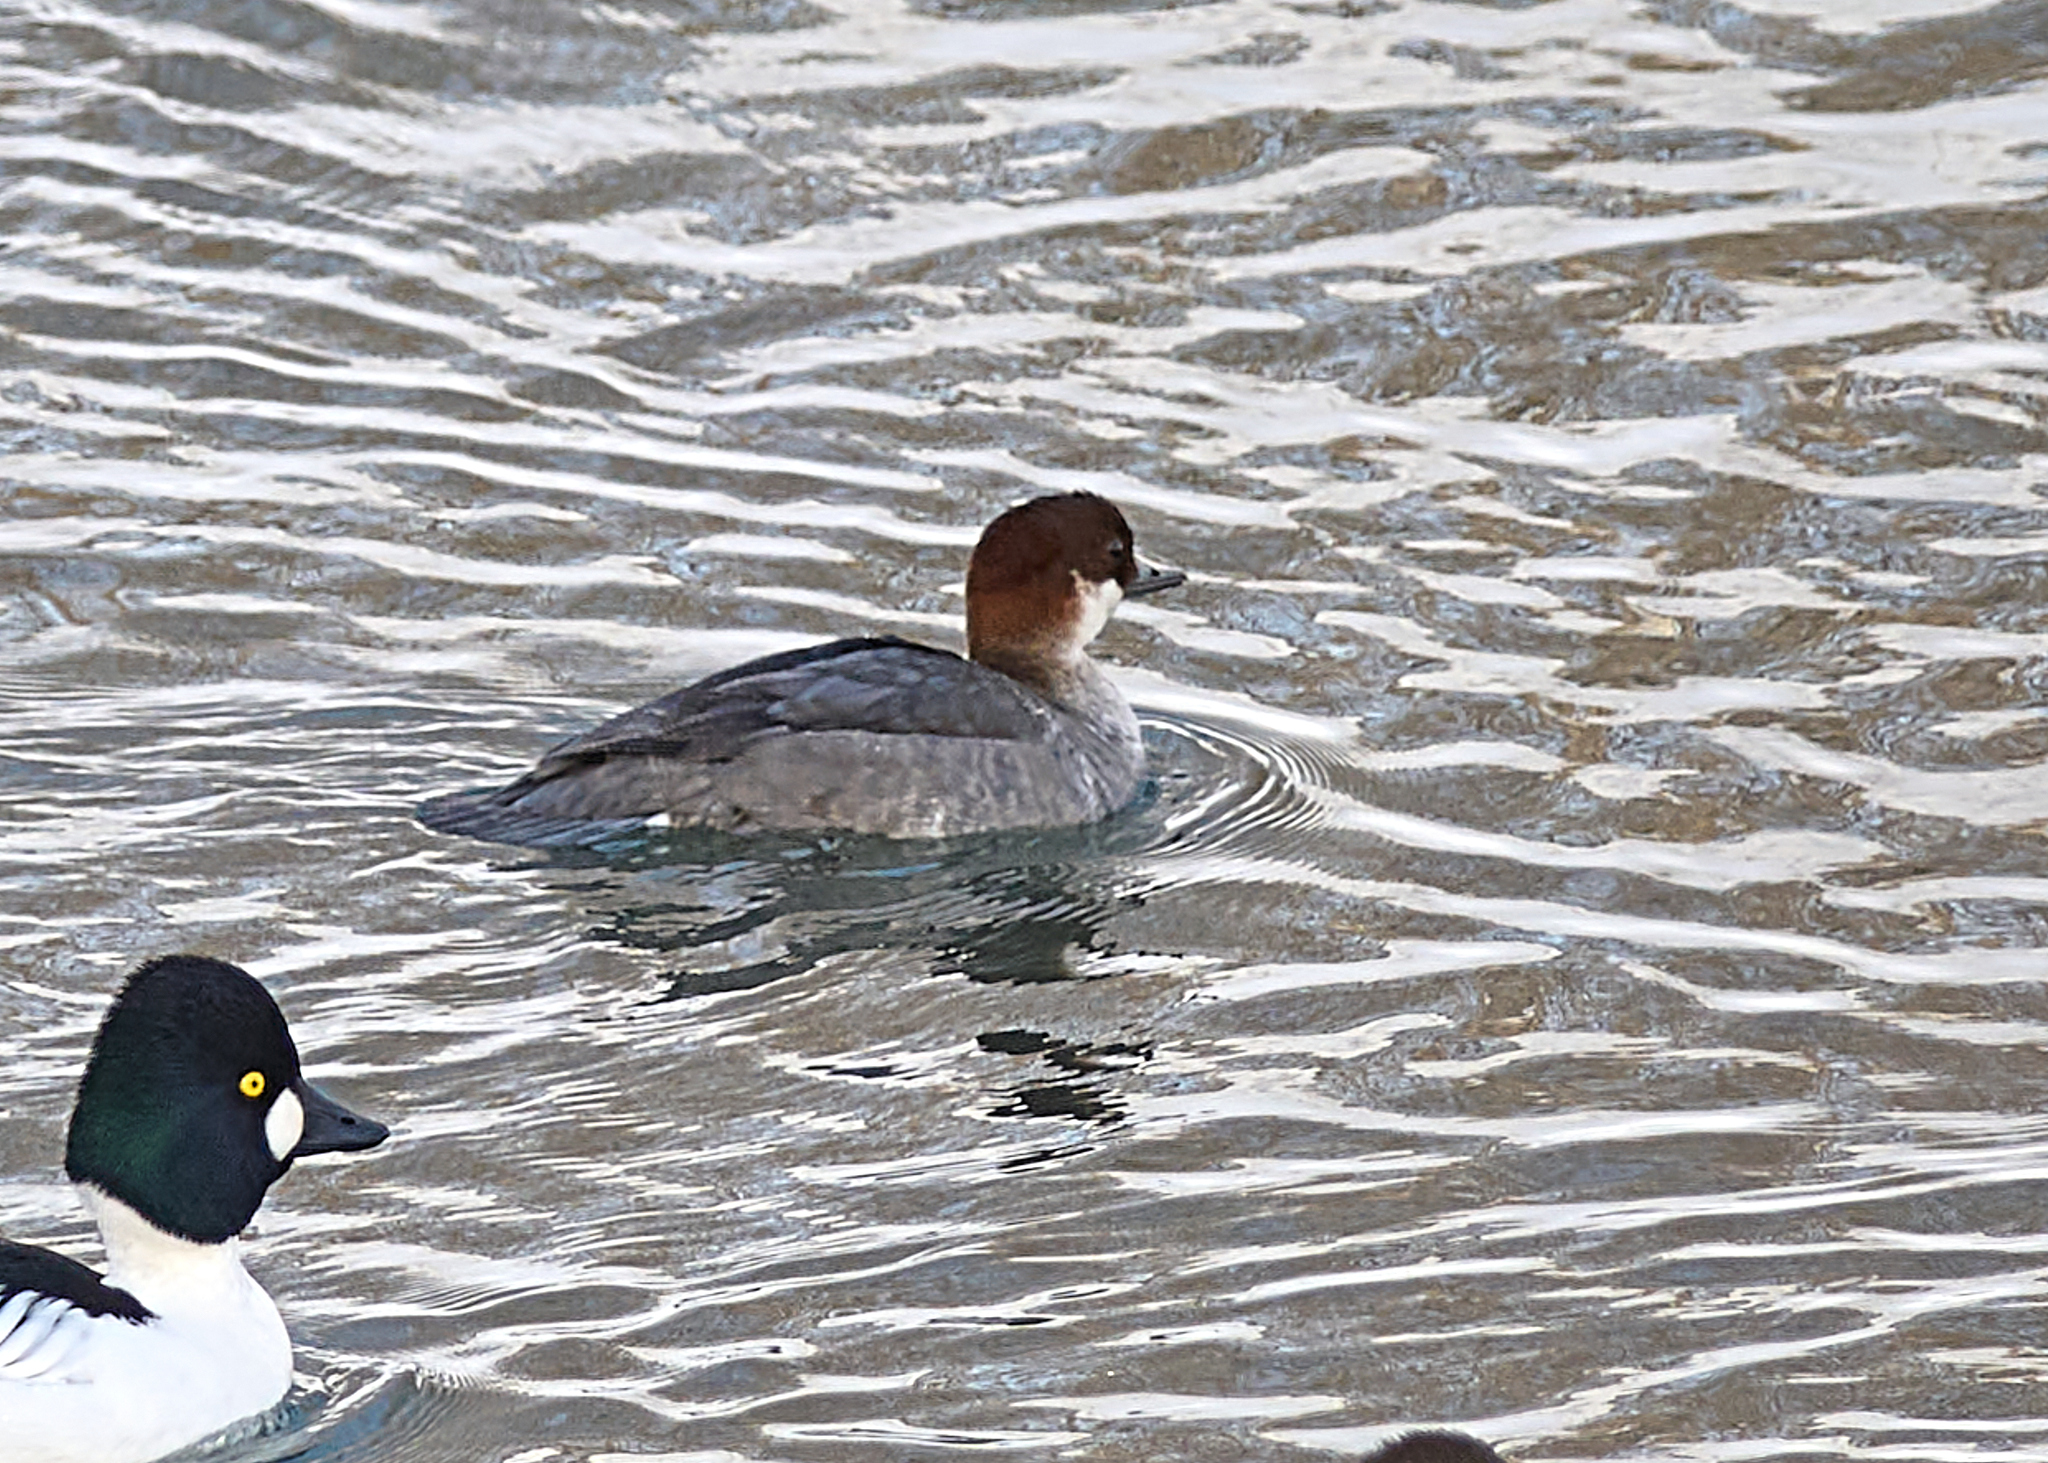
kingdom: Animalia
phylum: Chordata
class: Aves
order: Anseriformes
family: Anatidae
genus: Mergellus
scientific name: Mergellus albellus
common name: Smew
